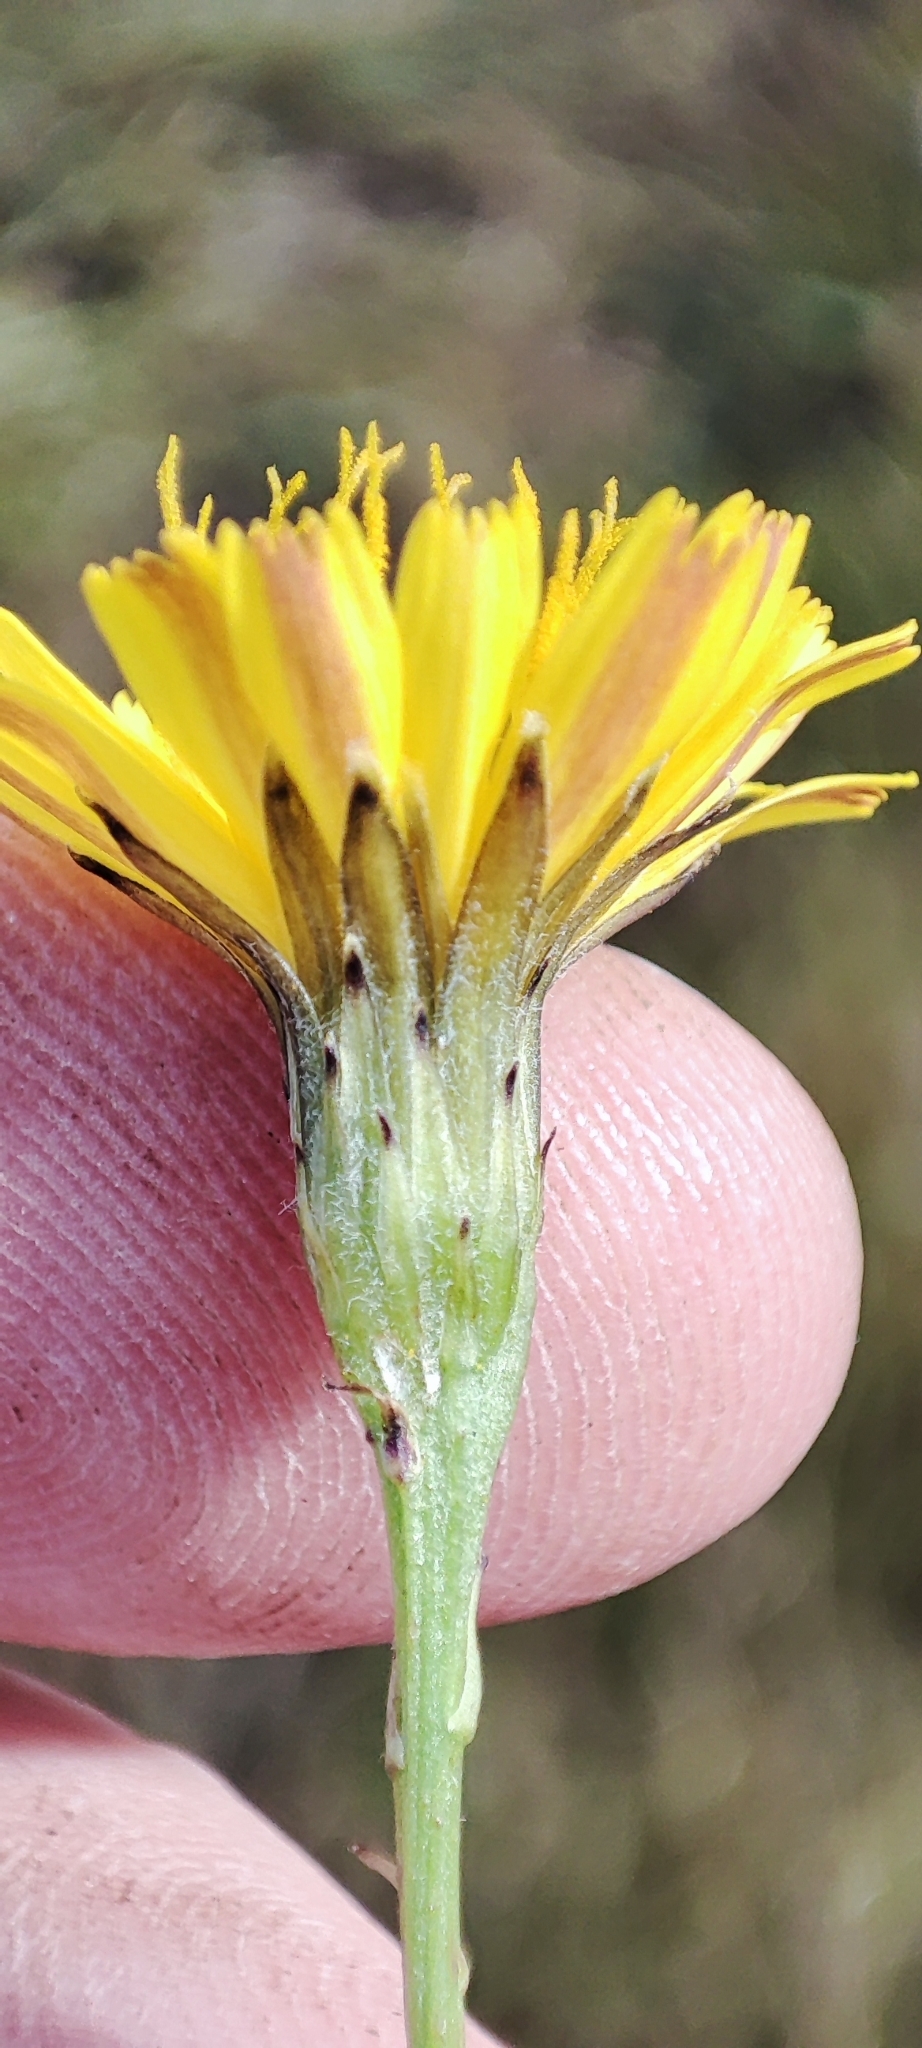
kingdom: Plantae
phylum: Tracheophyta
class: Magnoliopsida
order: Asterales
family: Asteraceae
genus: Scorzoneroides
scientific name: Scorzoneroides autumnalis
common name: Autumn hawkbit
